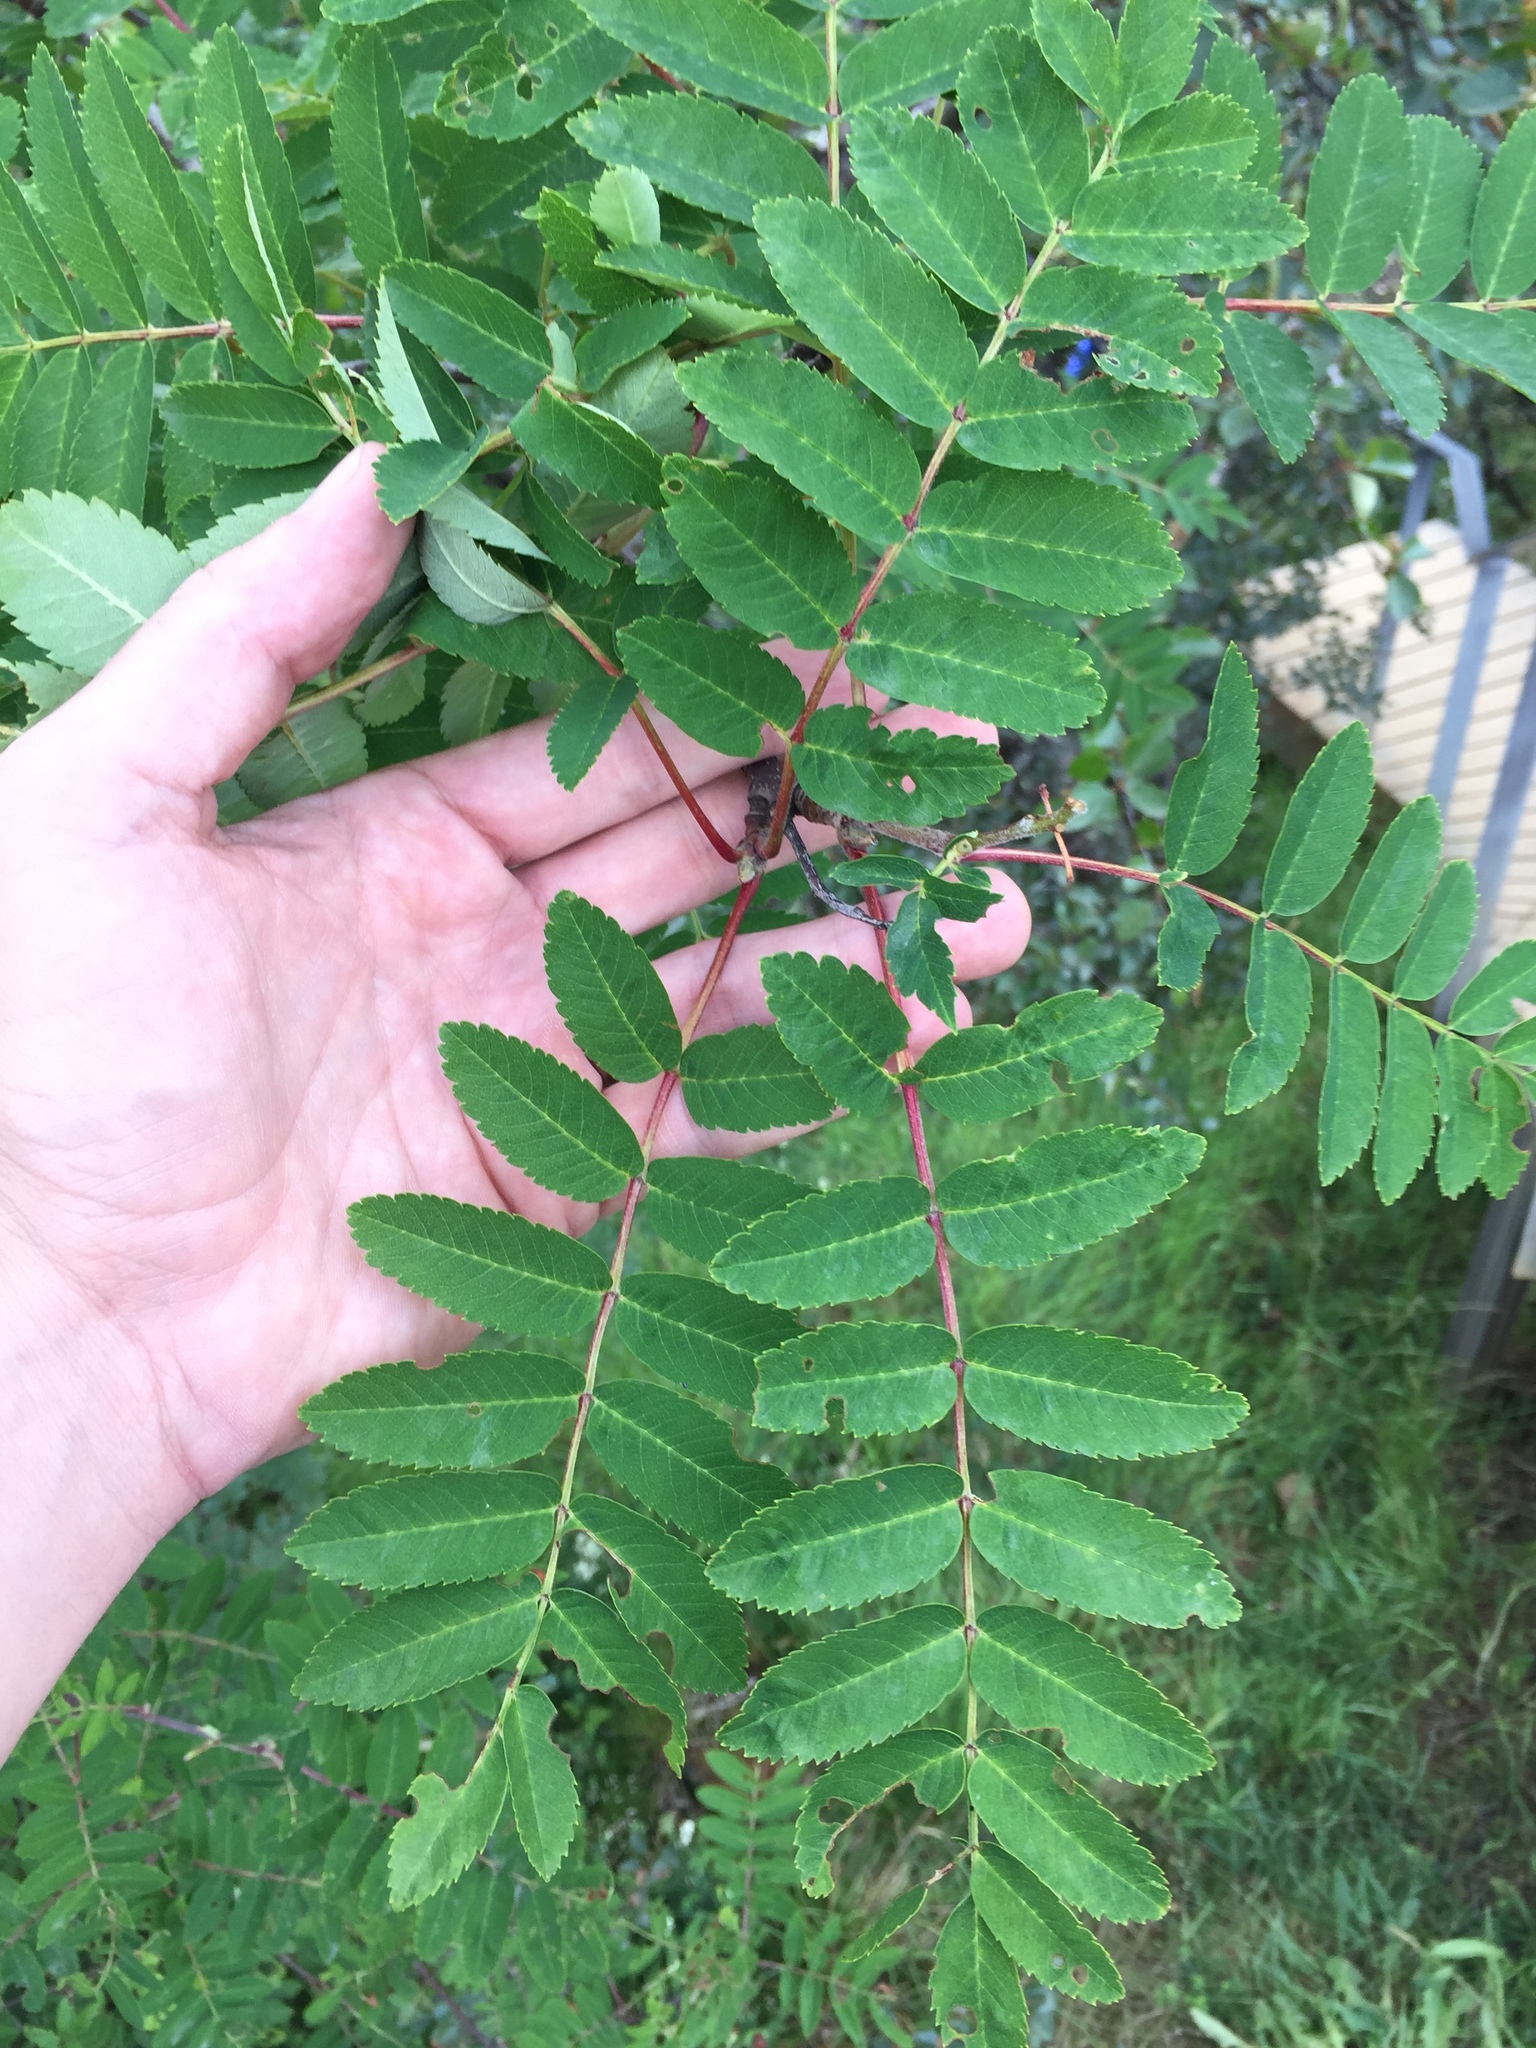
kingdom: Plantae
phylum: Tracheophyta
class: Magnoliopsida
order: Rosales
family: Rosaceae
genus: Sorbus
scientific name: Sorbus aucuparia
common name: Rowan
